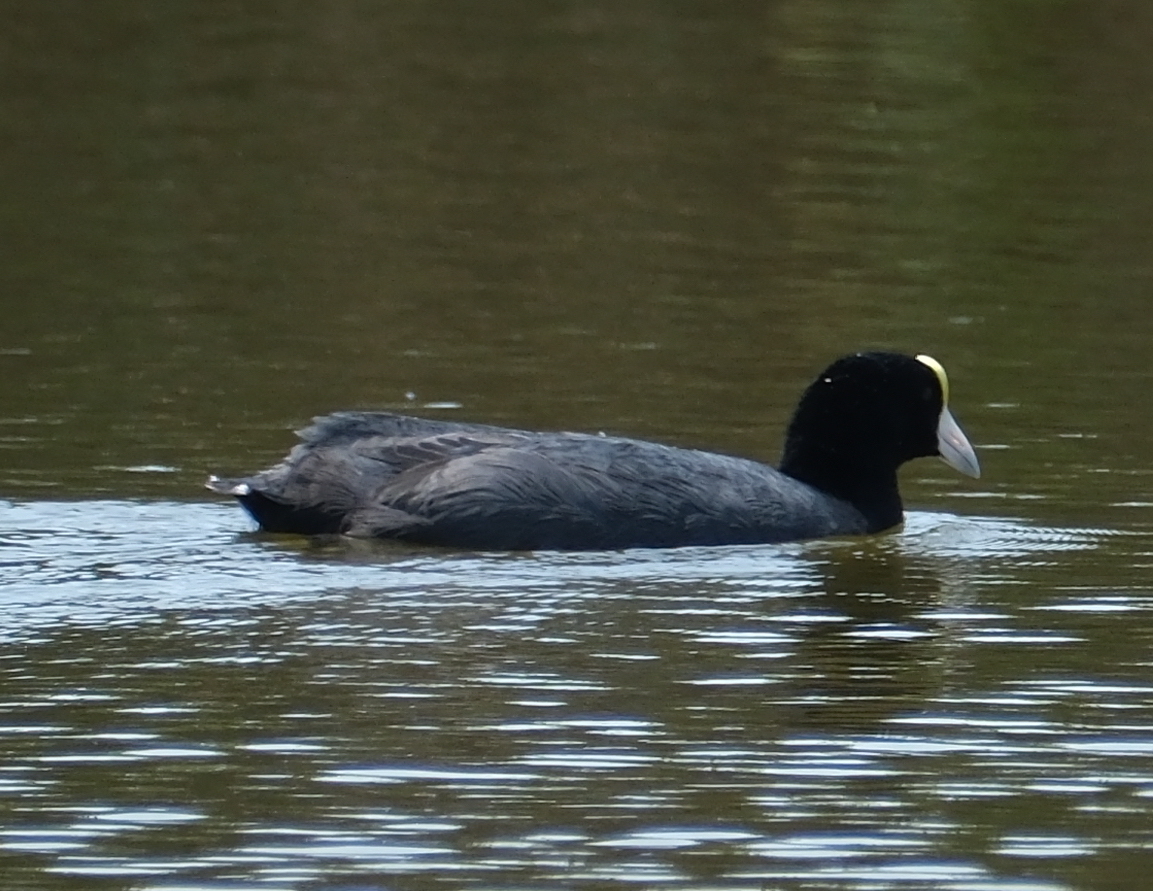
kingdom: Animalia
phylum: Chordata
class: Aves
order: Gruiformes
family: Rallidae
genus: Fulica
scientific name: Fulica ardesiaca
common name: Andean coot
